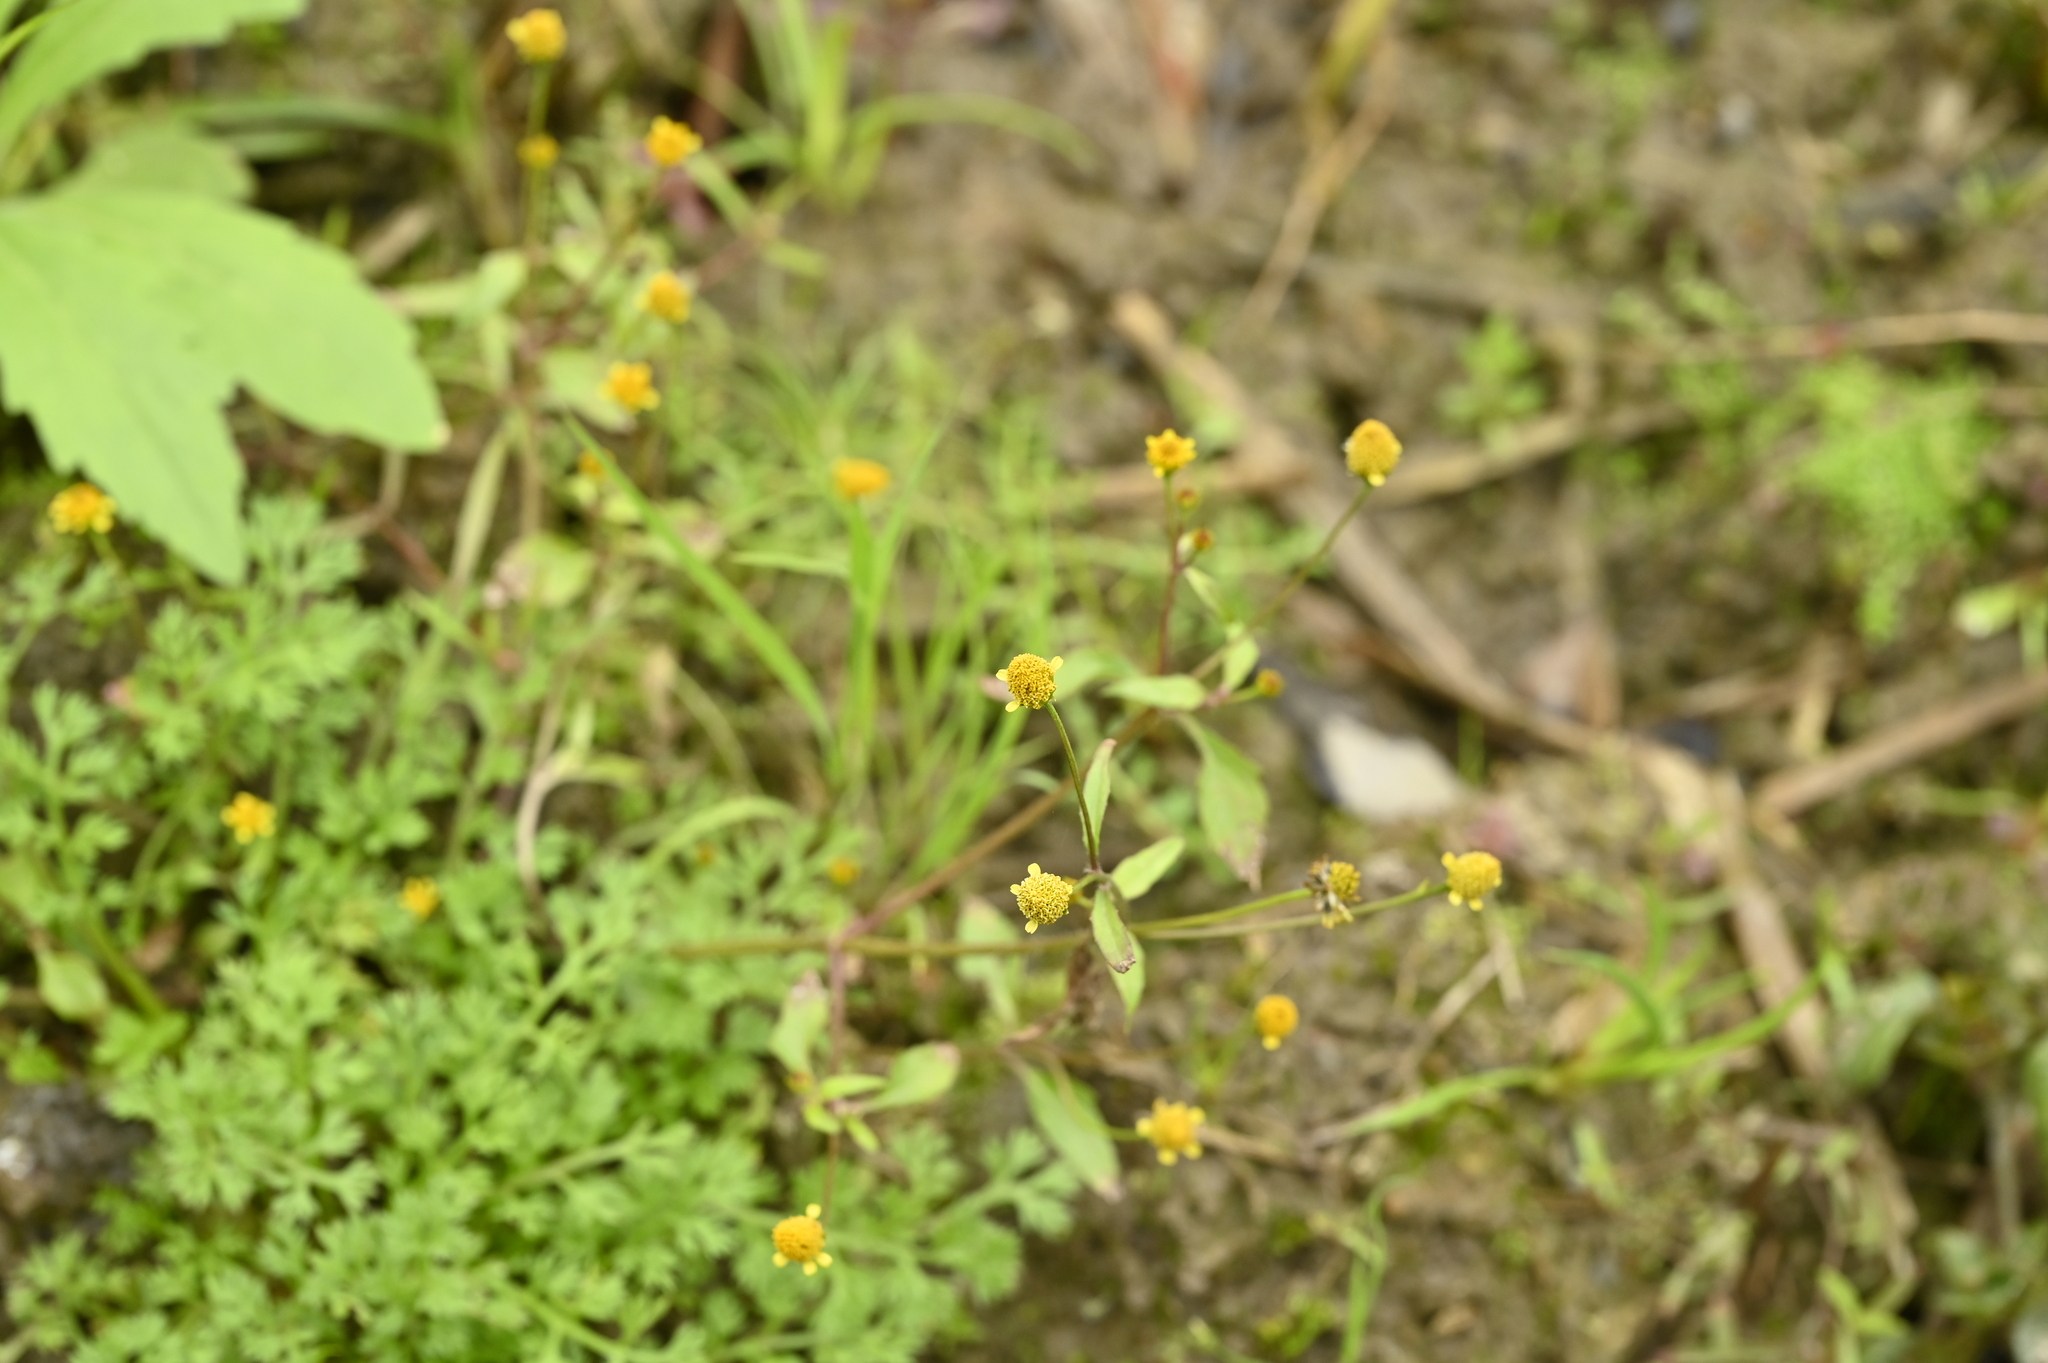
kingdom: Plantae
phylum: Tracheophyta
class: Magnoliopsida
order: Asterales
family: Asteraceae
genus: Acmella
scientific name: Acmella uliginosa
